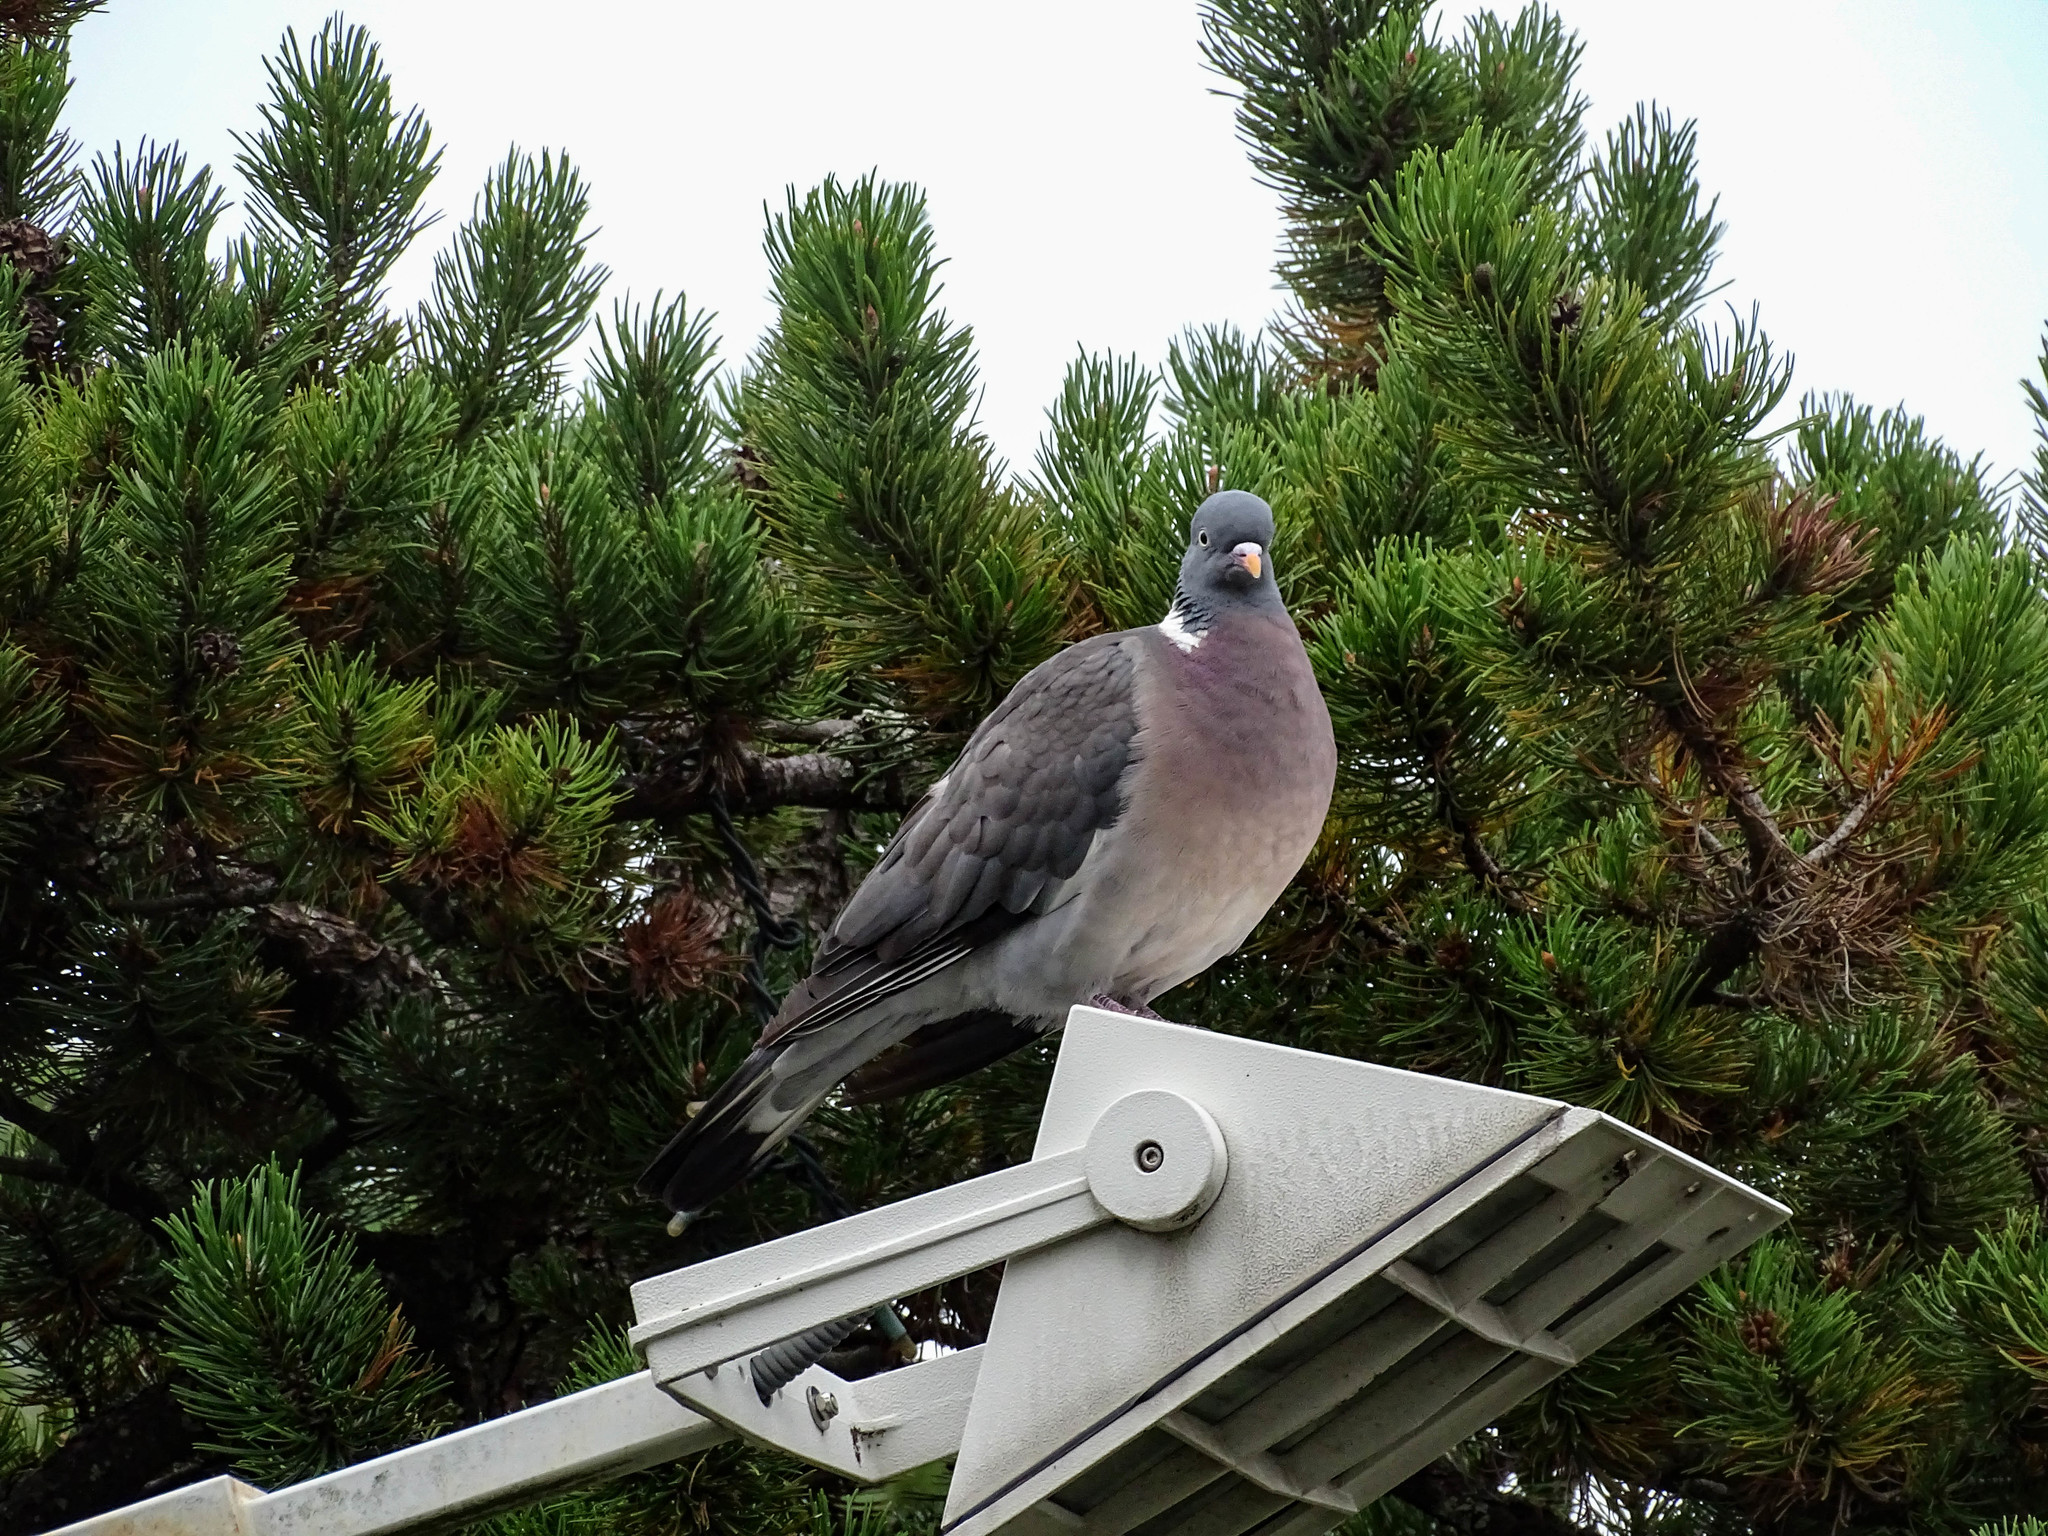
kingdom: Animalia
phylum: Chordata
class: Aves
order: Columbiformes
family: Columbidae
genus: Columba
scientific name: Columba palumbus
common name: Common wood pigeon
